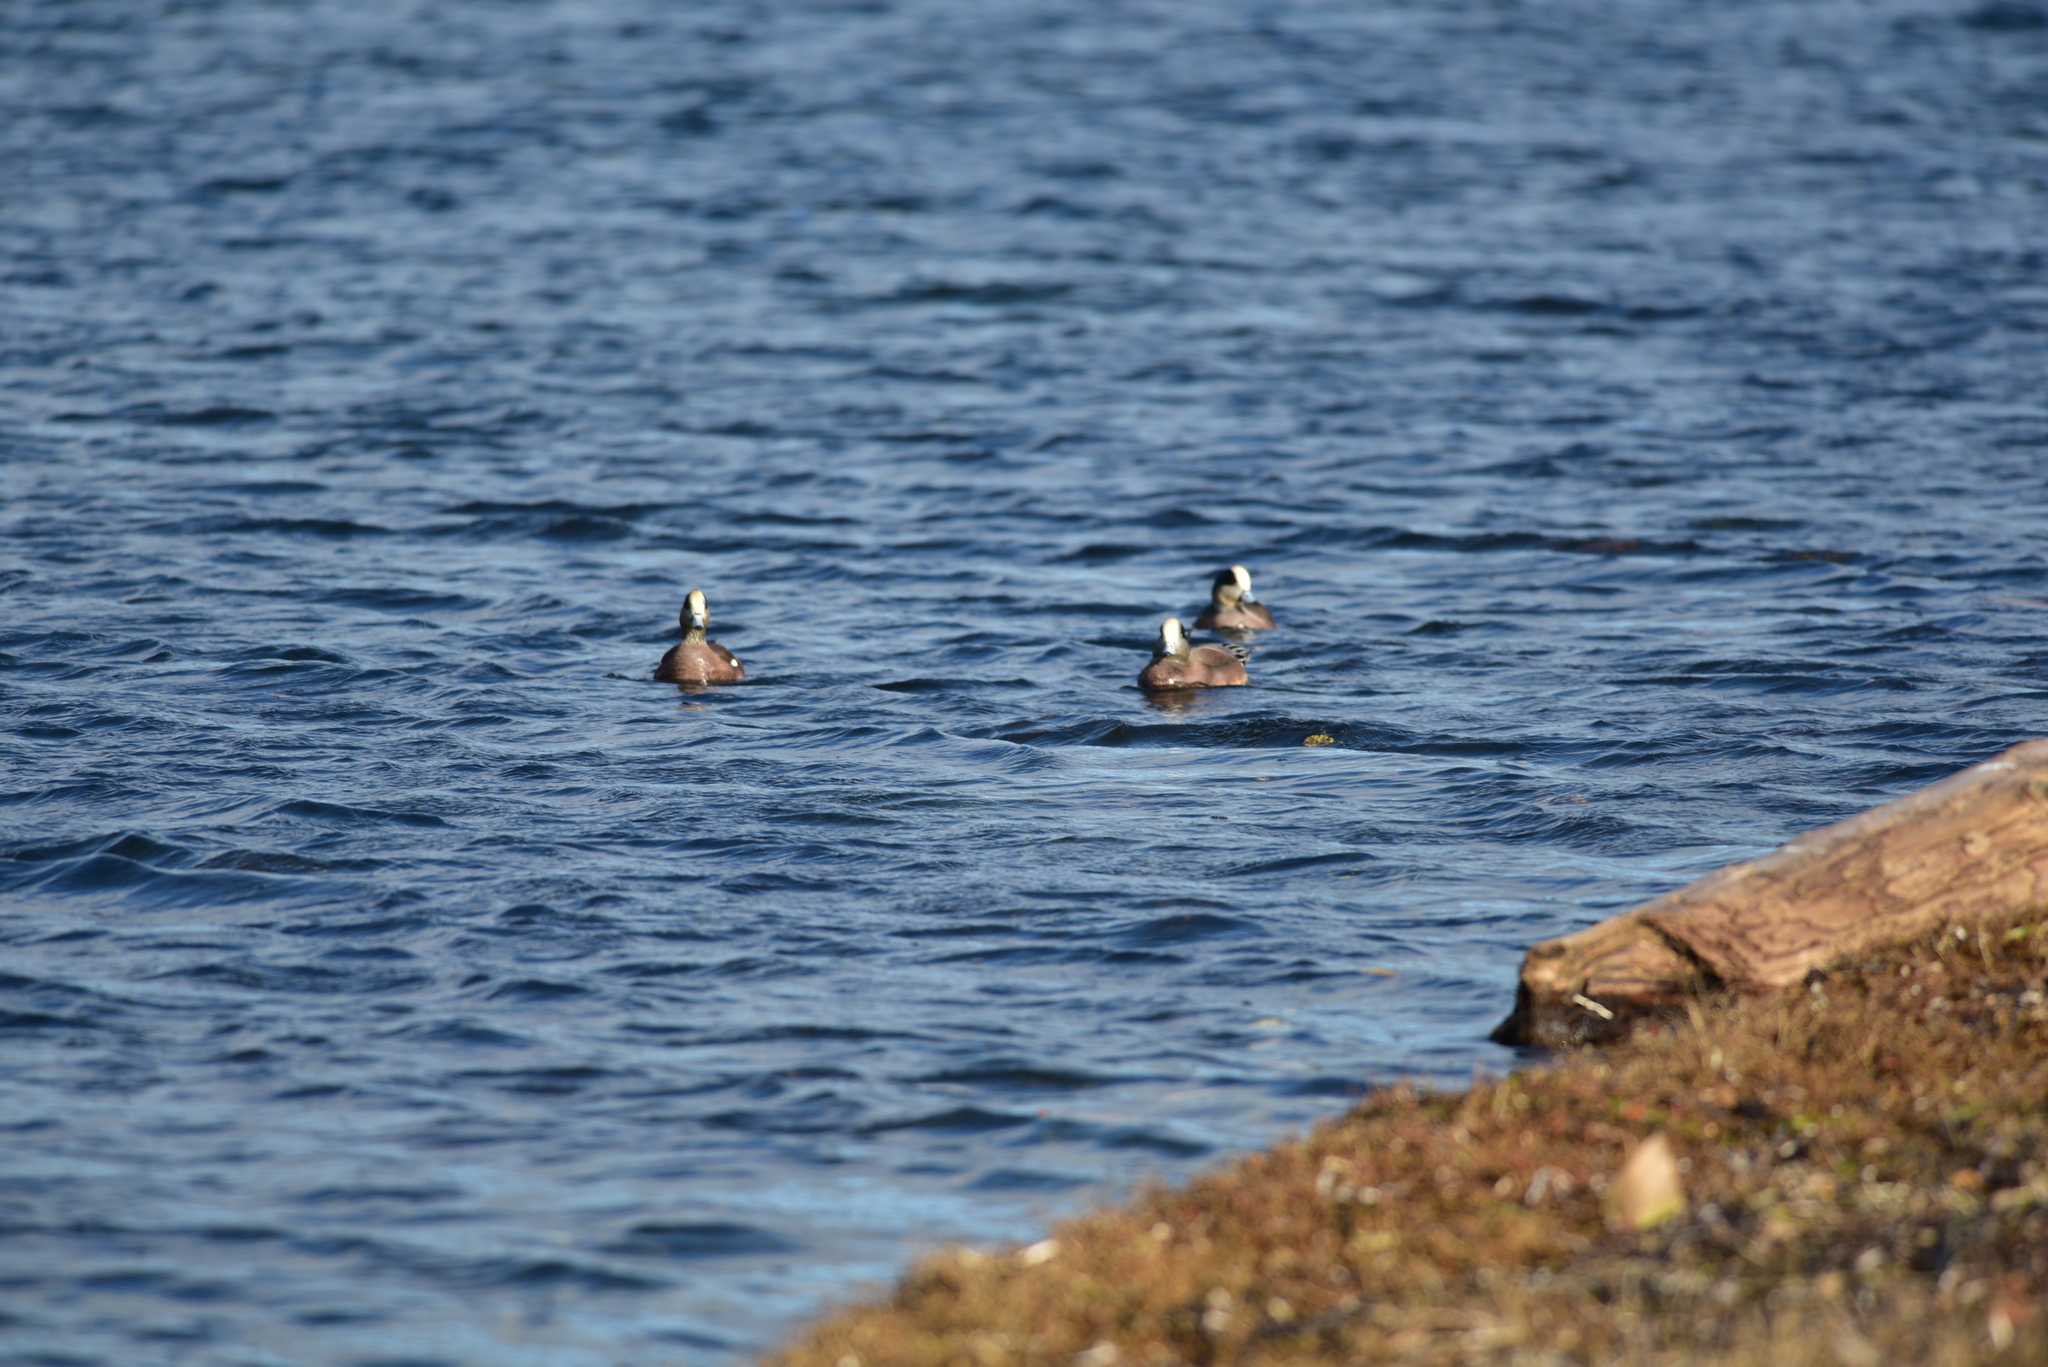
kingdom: Animalia
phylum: Chordata
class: Aves
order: Anseriformes
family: Anatidae
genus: Mareca
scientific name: Mareca americana
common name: American wigeon
